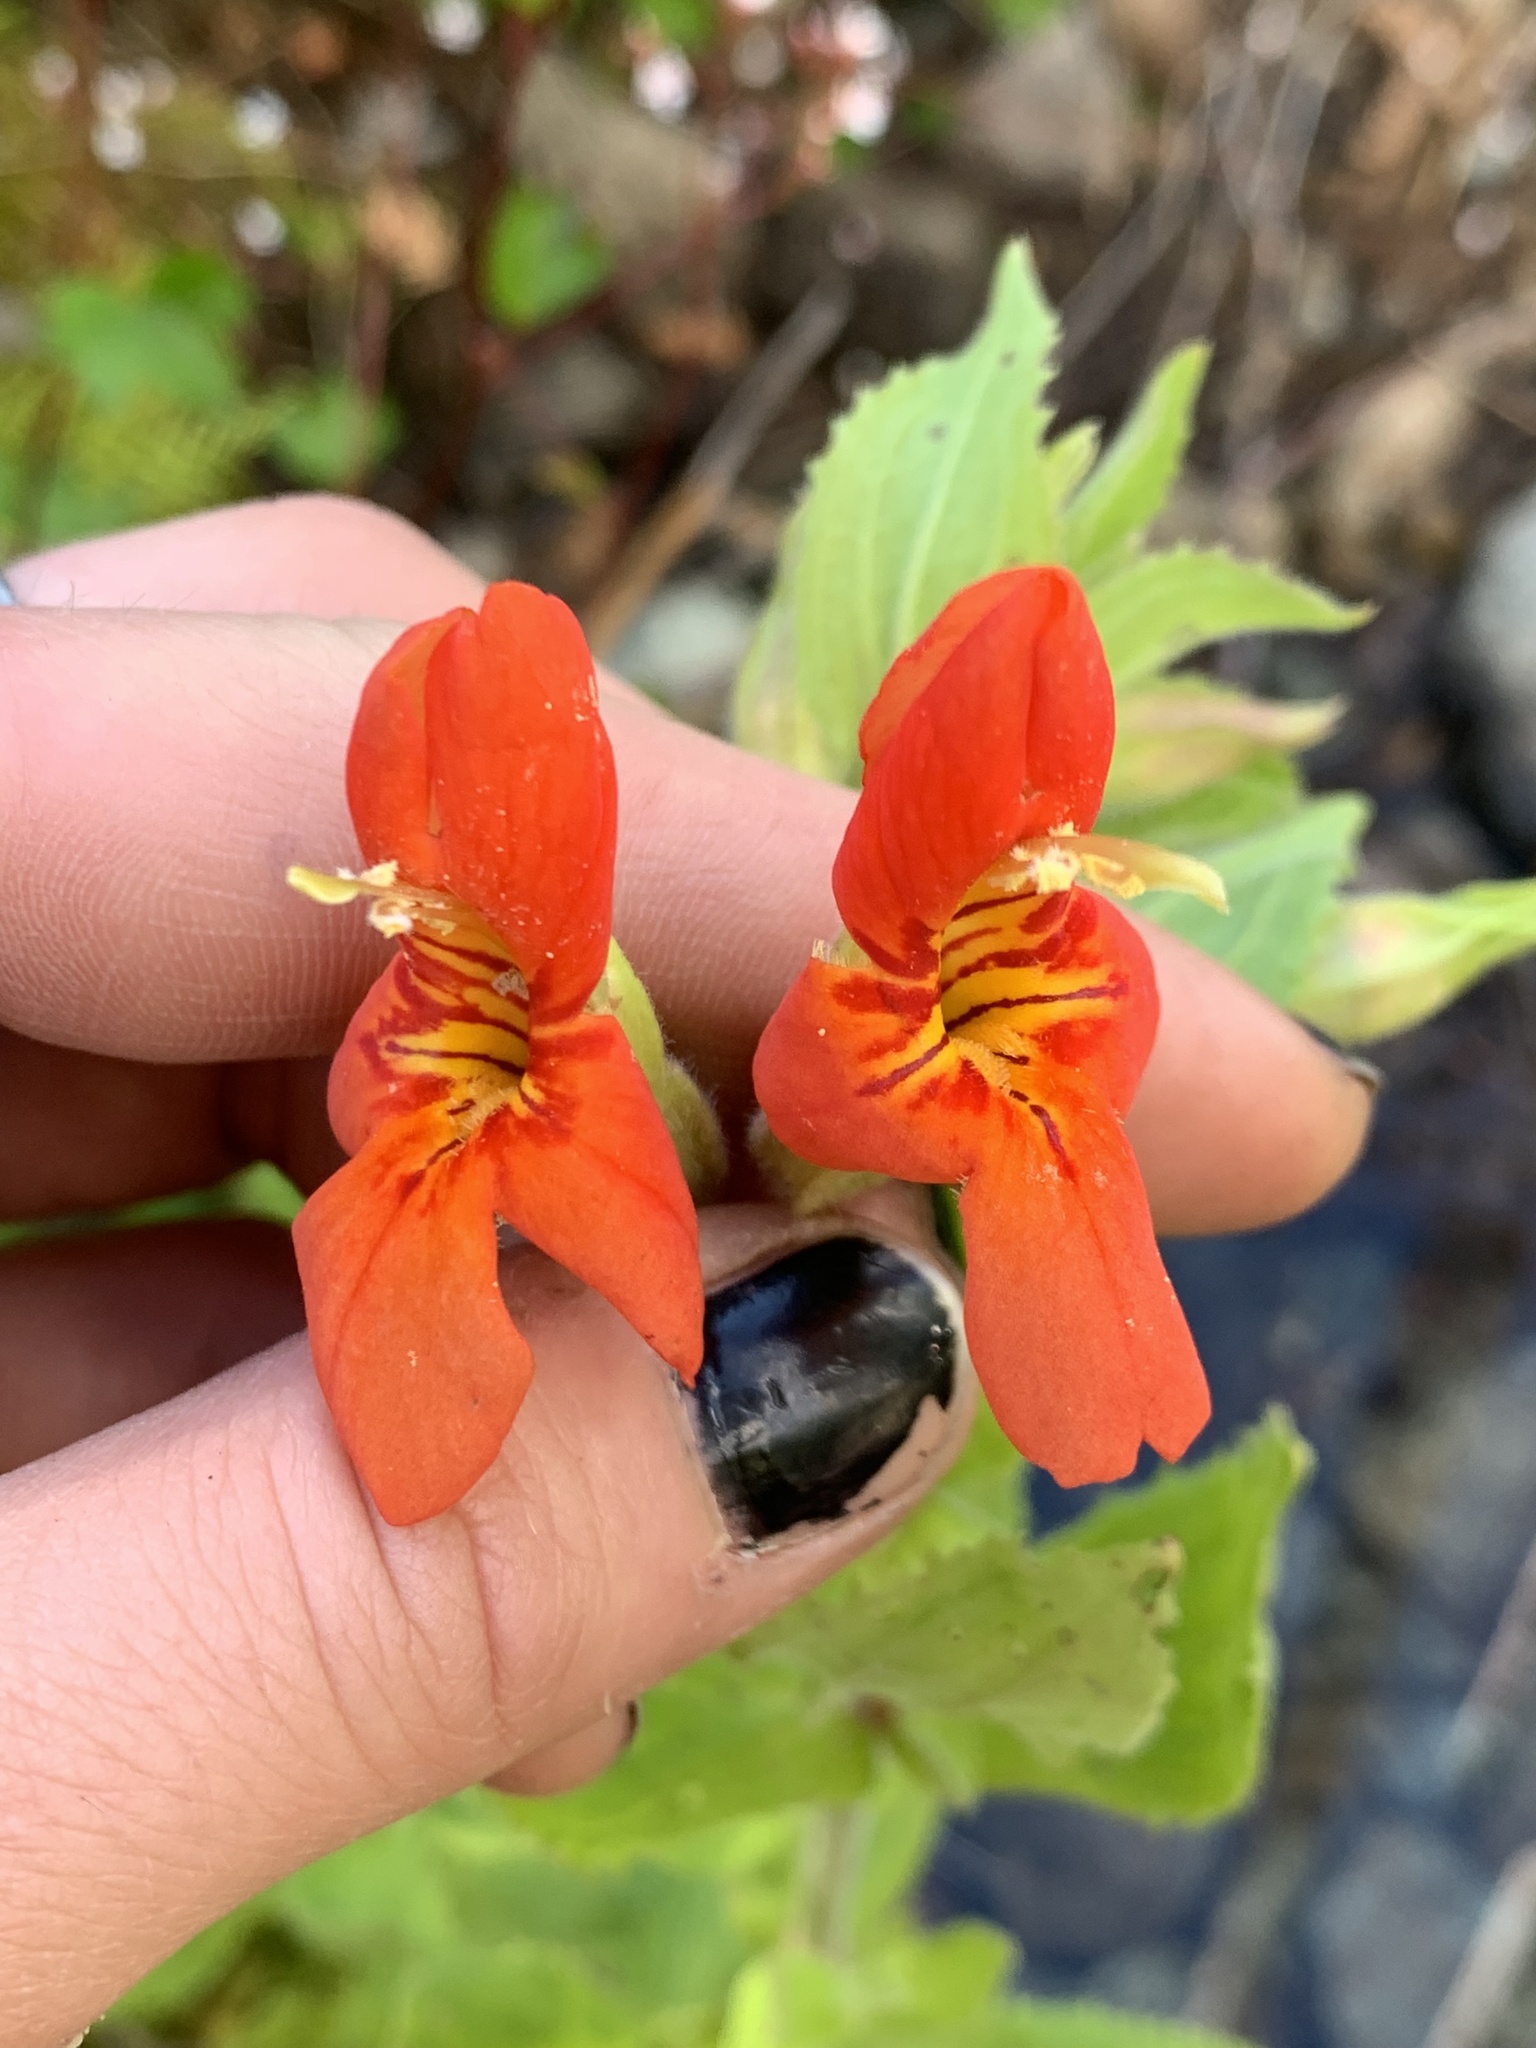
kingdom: Plantae
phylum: Tracheophyta
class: Magnoliopsida
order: Lamiales
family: Phrymaceae
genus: Erythranthe
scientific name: Erythranthe cardinalis
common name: Scarlet monkey-flower
